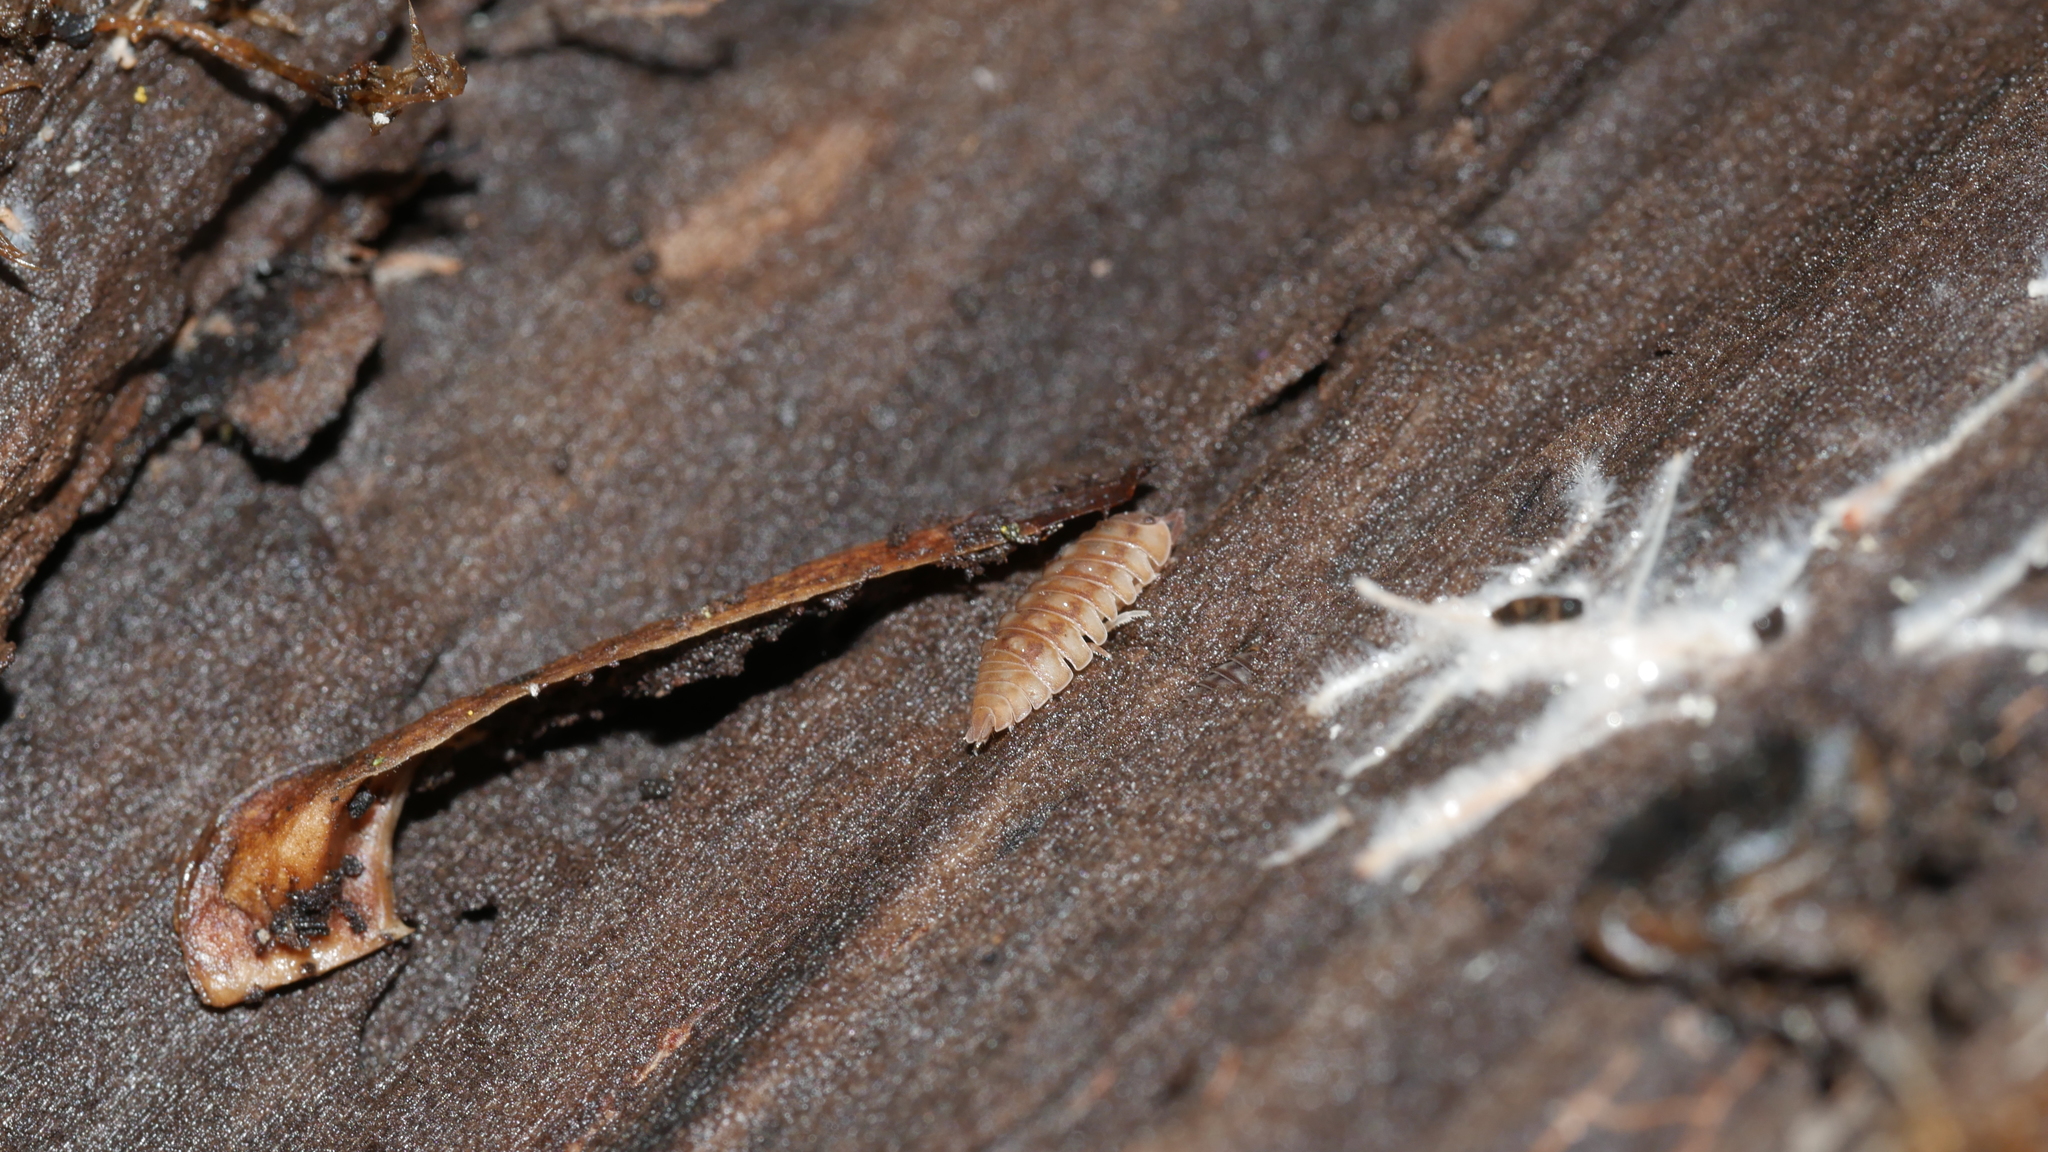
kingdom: Animalia
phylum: Arthropoda
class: Malacostraca
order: Isopoda
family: Armadillidiidae
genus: Armadillidium
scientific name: Armadillidium nasatum
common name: Isopod
